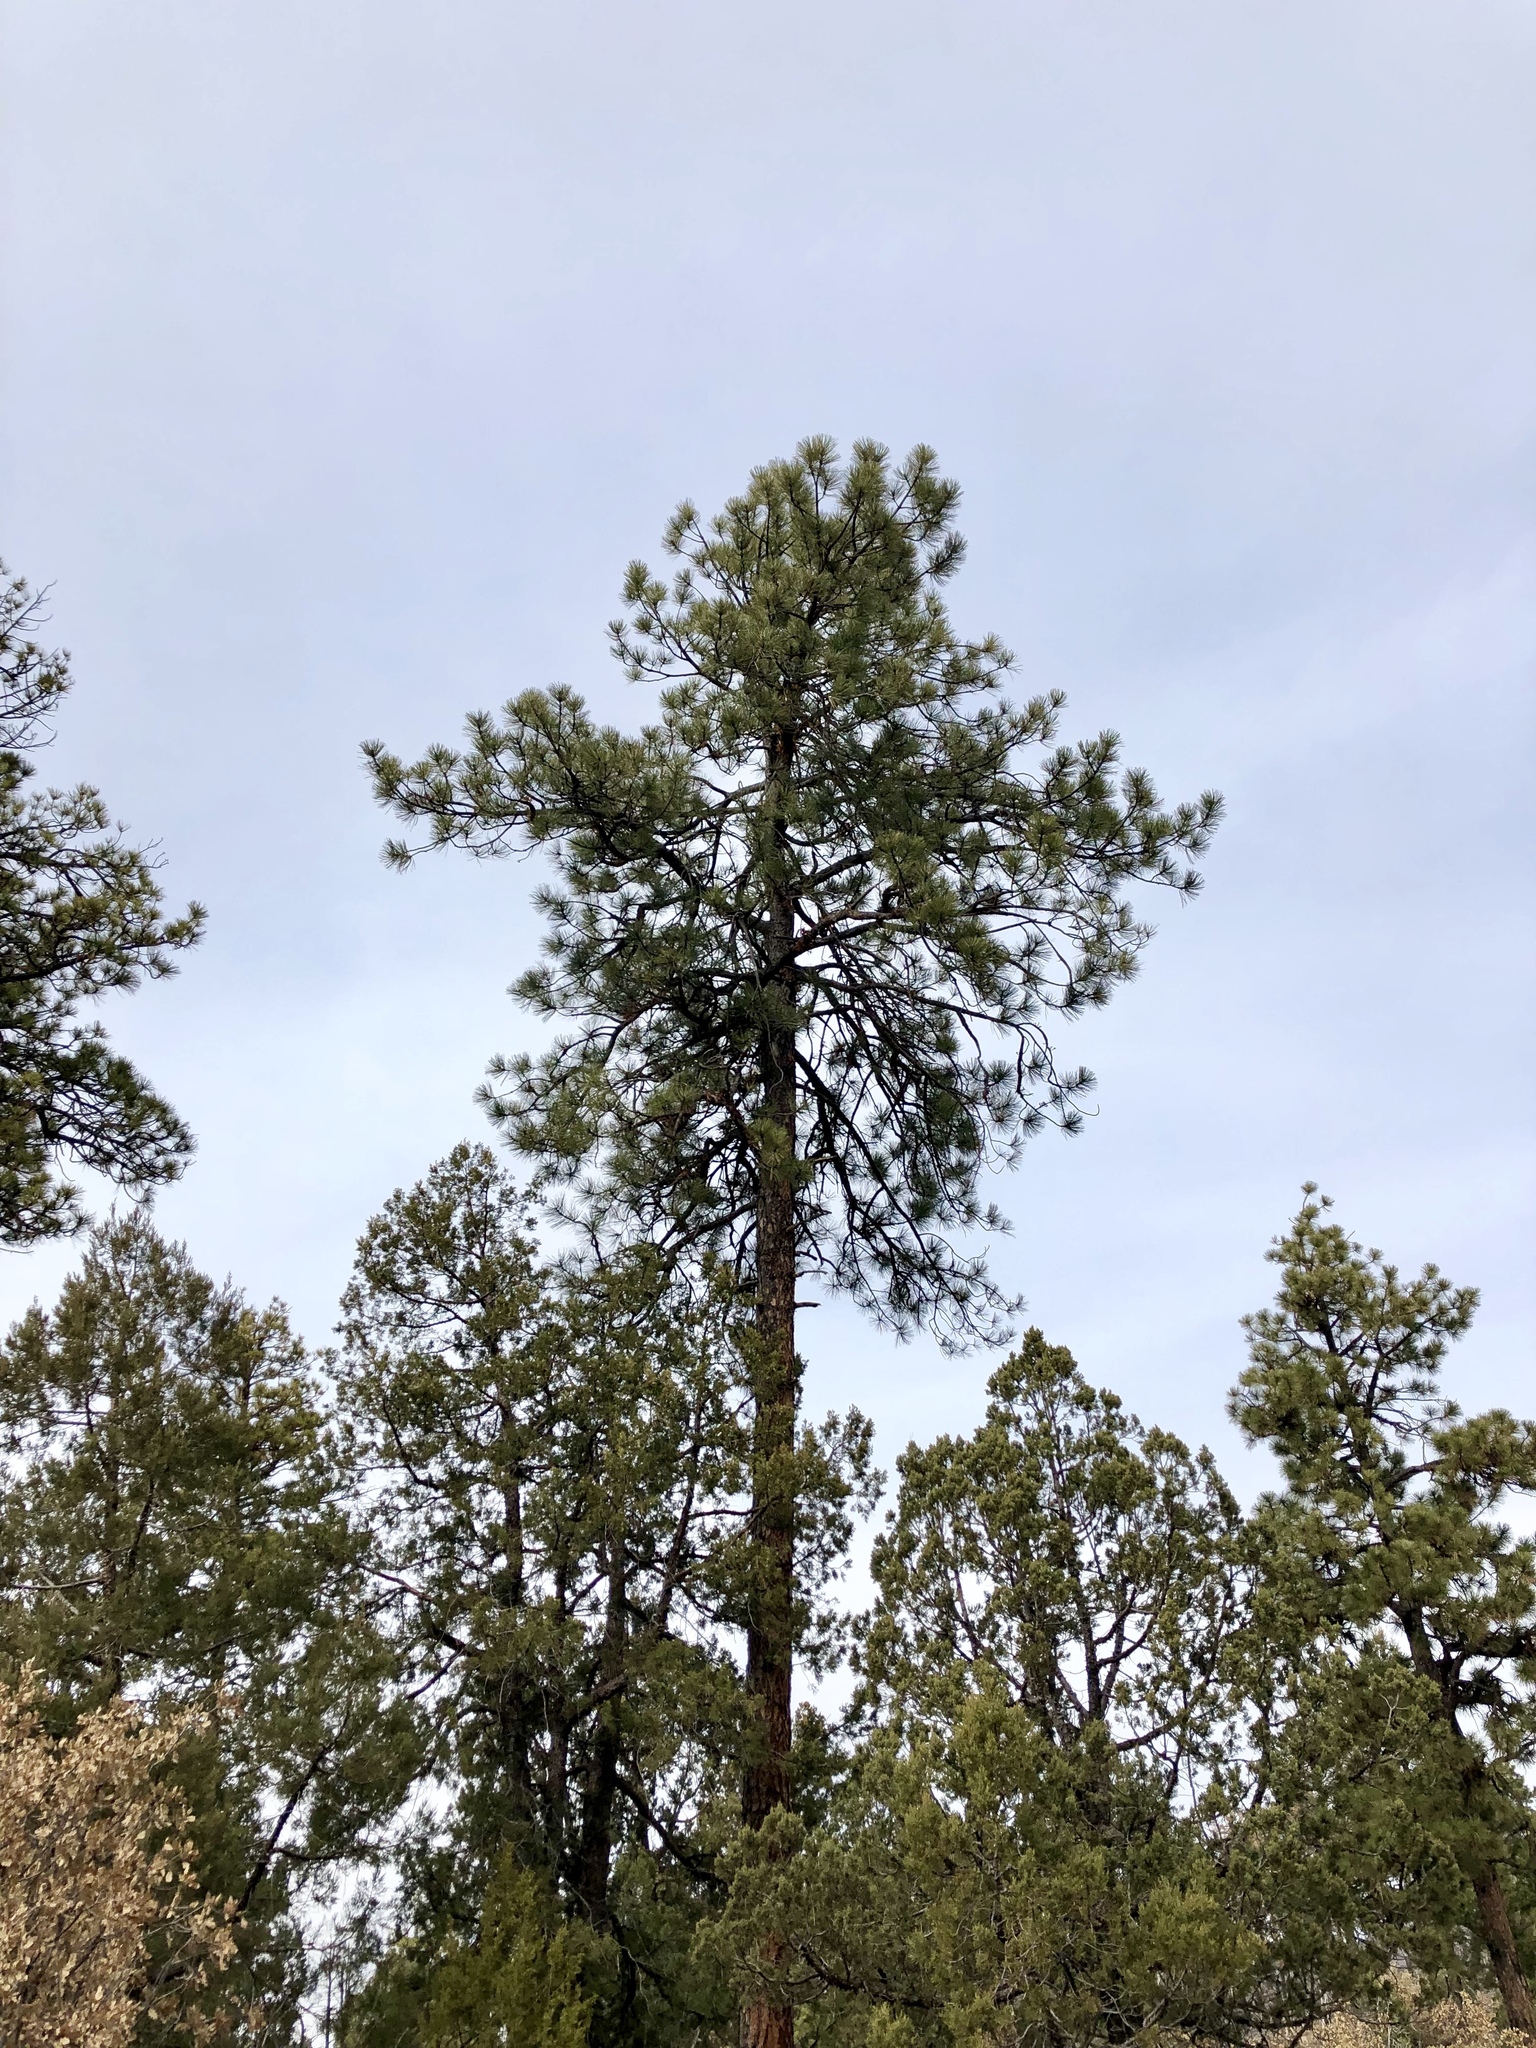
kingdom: Plantae
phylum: Tracheophyta
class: Pinopsida
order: Pinales
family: Pinaceae
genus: Pinus
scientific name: Pinus ponderosa
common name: Western yellow-pine
